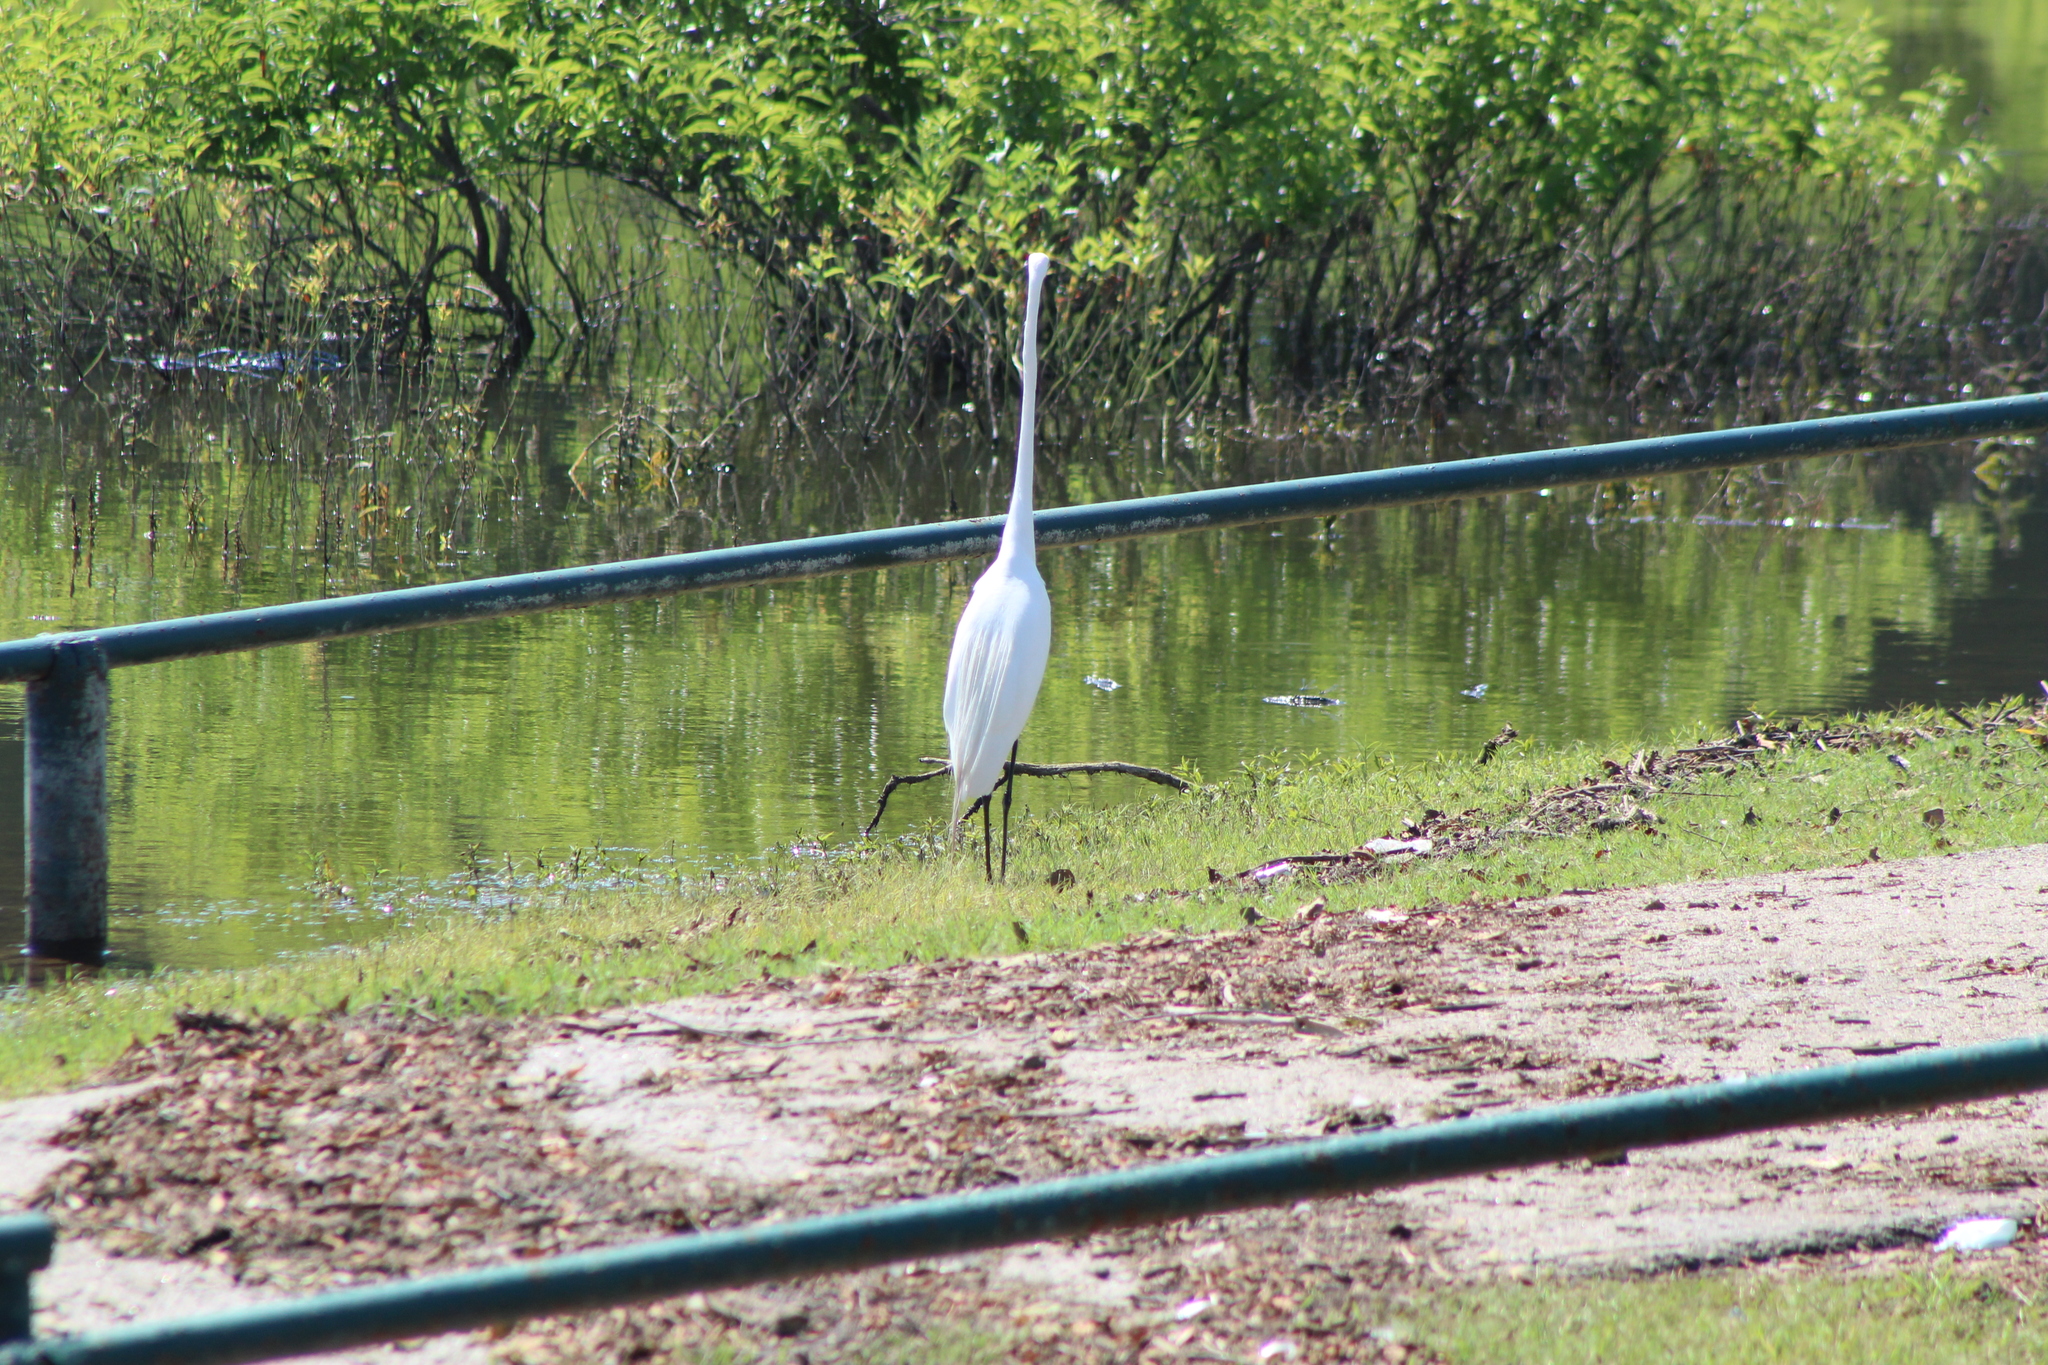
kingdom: Animalia
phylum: Chordata
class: Aves
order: Pelecaniformes
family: Ardeidae
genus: Ardea
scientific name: Ardea alba
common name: Great egret
